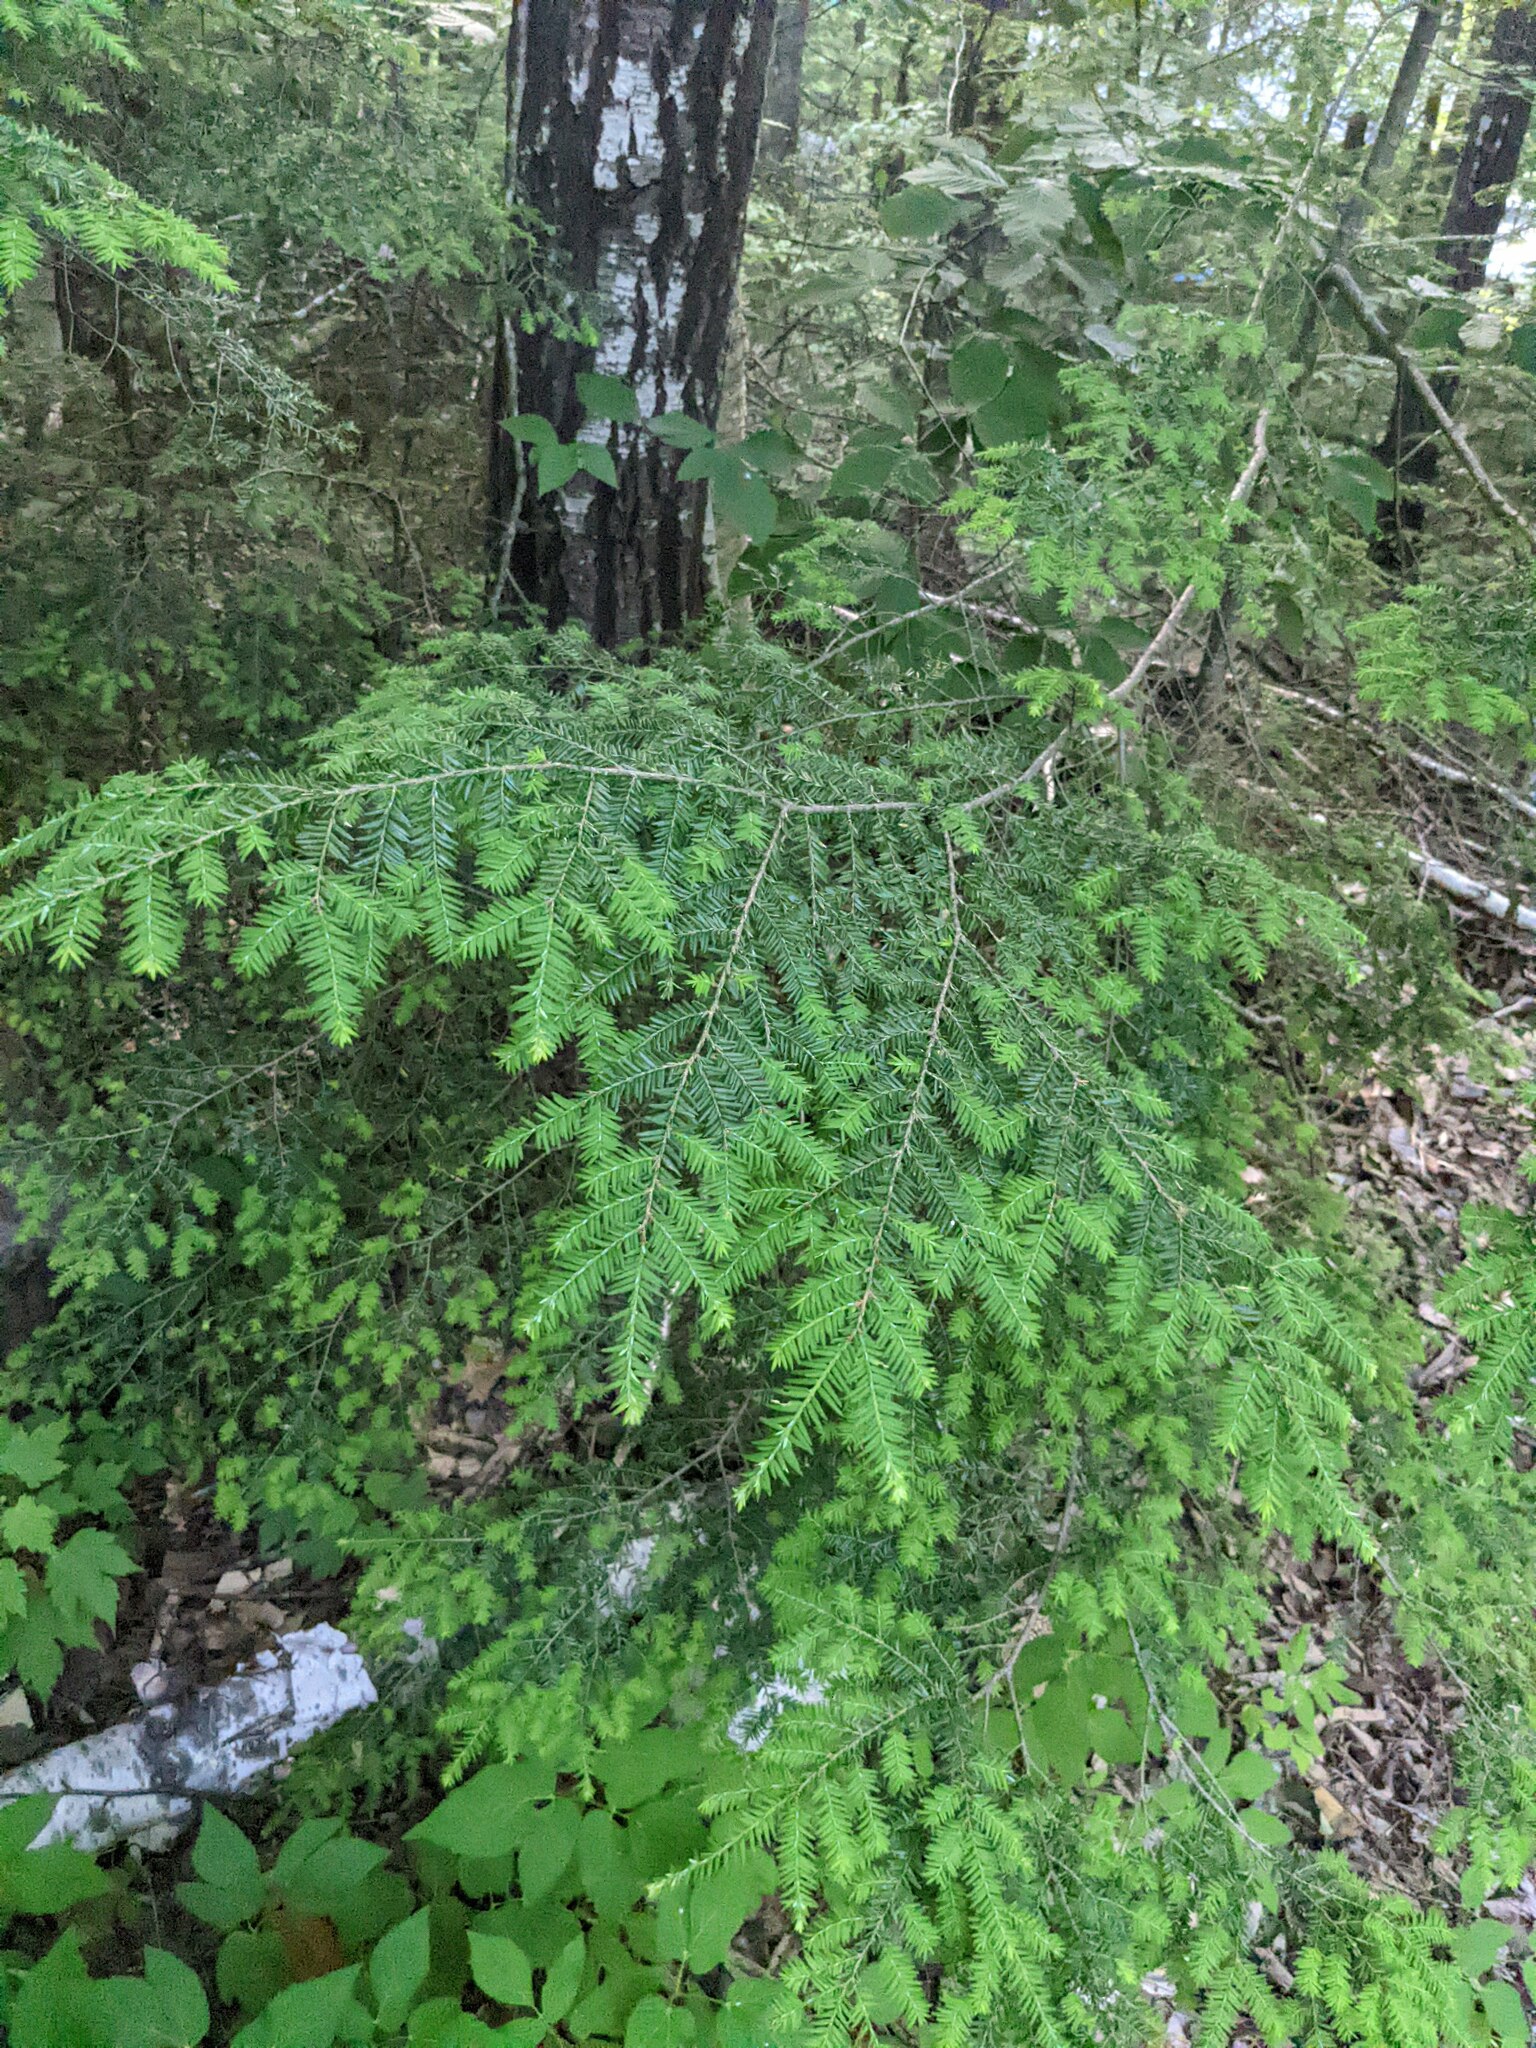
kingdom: Plantae
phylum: Tracheophyta
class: Pinopsida
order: Pinales
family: Pinaceae
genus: Tsuga
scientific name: Tsuga canadensis
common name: Eastern hemlock
